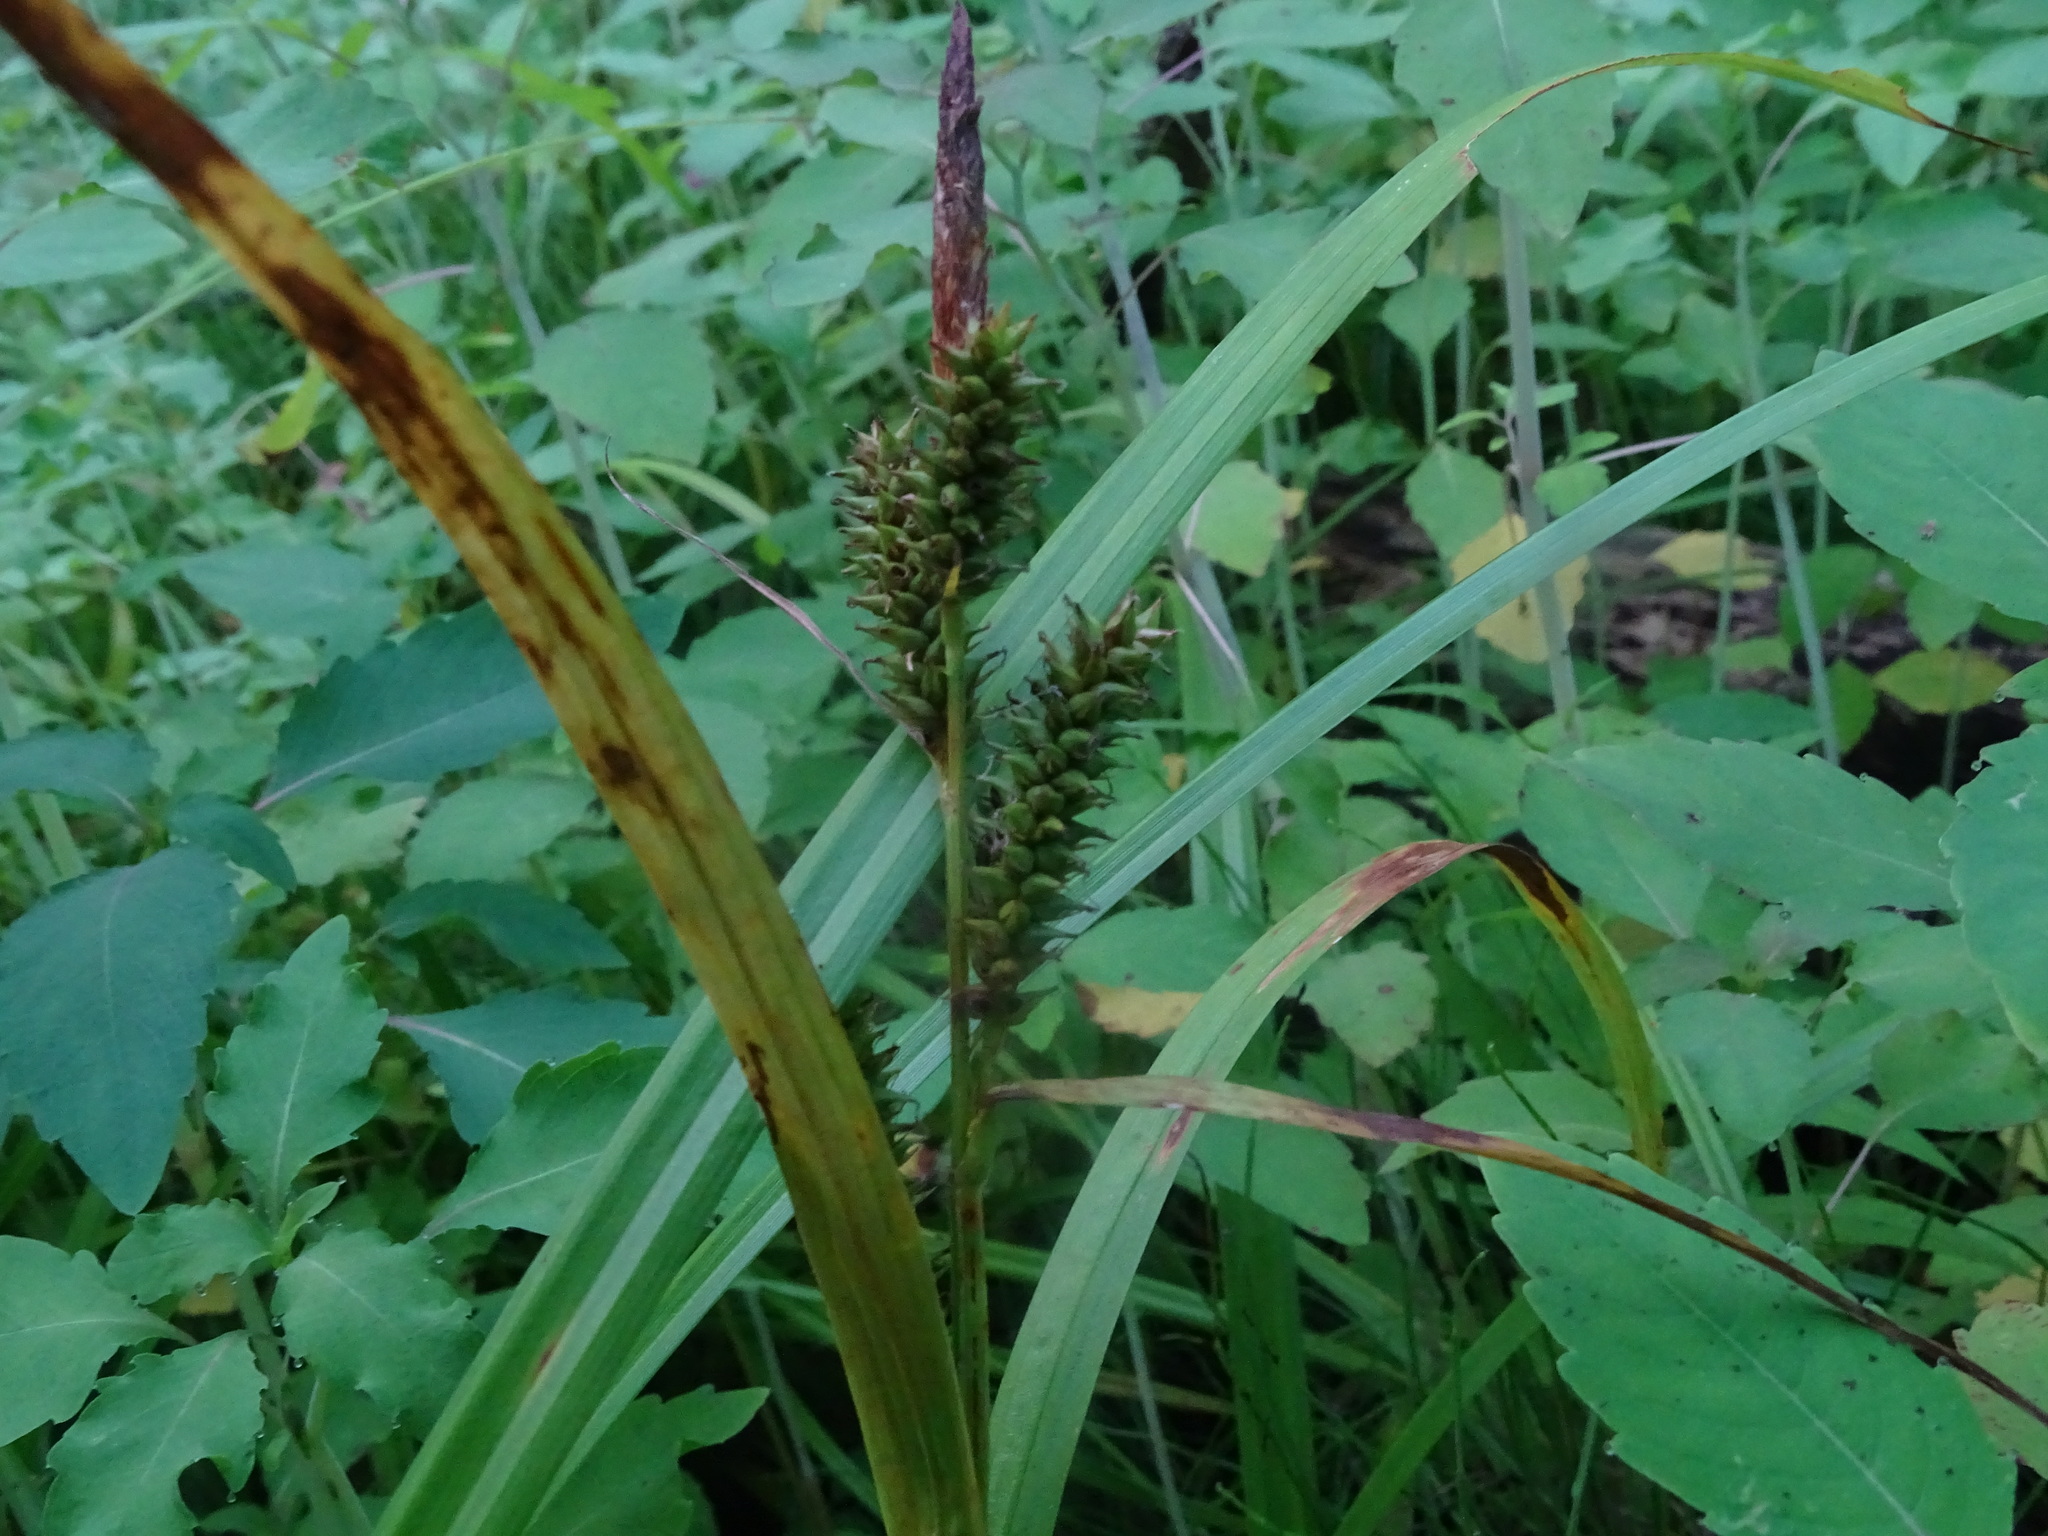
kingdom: Plantae
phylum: Tracheophyta
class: Liliopsida
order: Poales
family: Cyperaceae
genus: Carex
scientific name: Carex scabrata
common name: Eastern rough sedge
